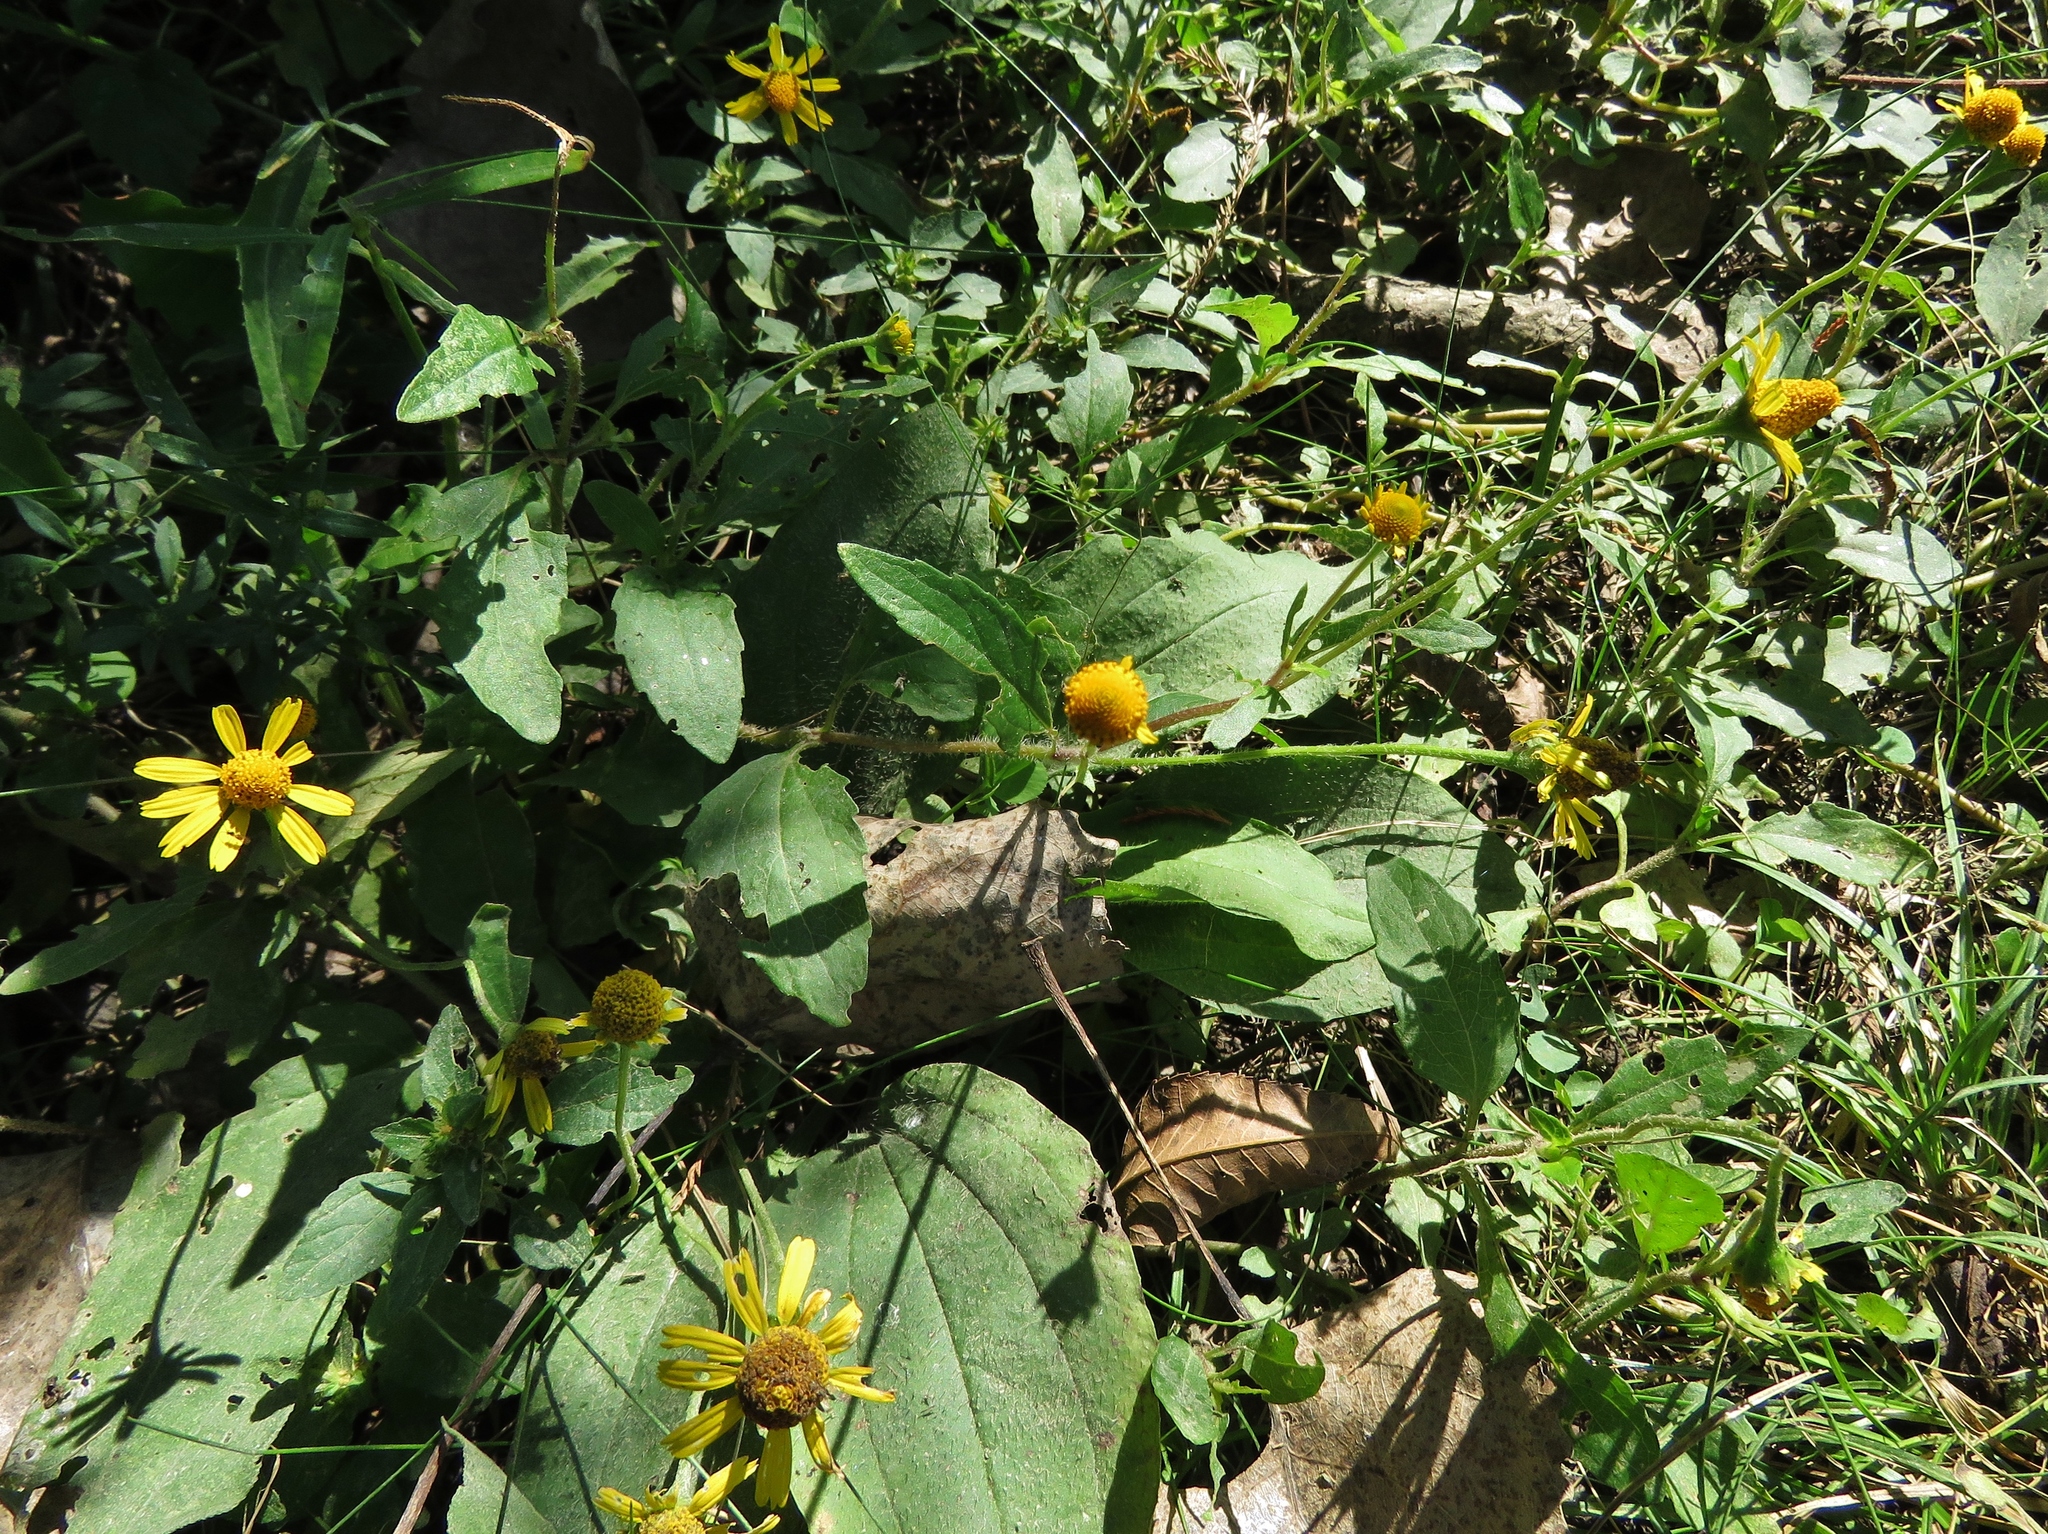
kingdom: Plantae
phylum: Tracheophyta
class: Magnoliopsida
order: Asterales
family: Asteraceae
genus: Acmella
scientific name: Acmella repens
